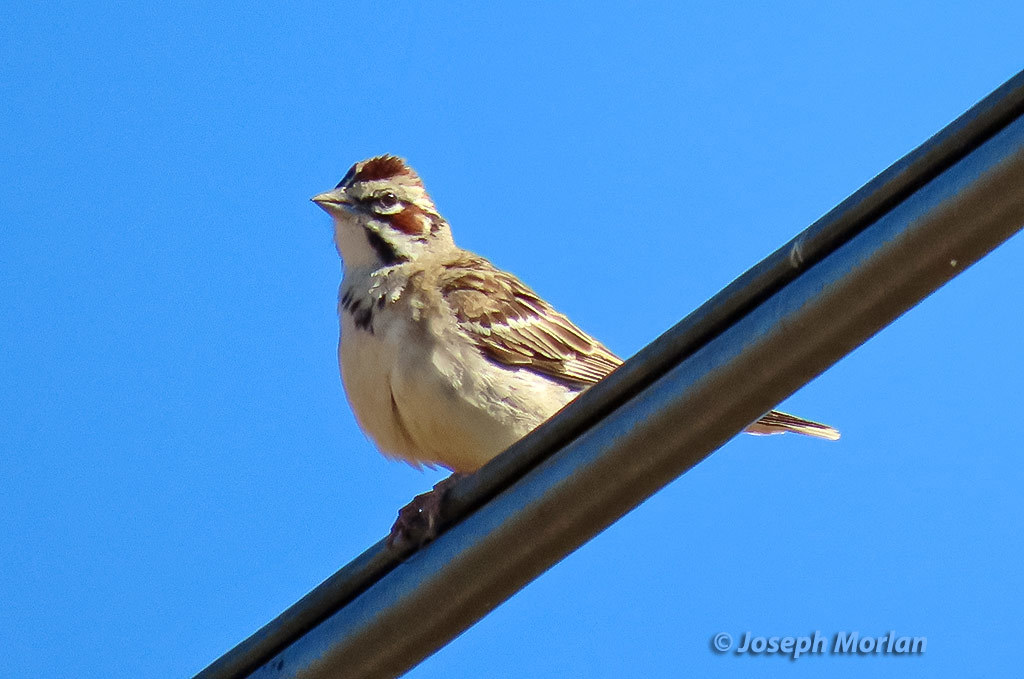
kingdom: Animalia
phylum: Chordata
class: Aves
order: Passeriformes
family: Passerellidae
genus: Chondestes
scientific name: Chondestes grammacus
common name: Lark sparrow
